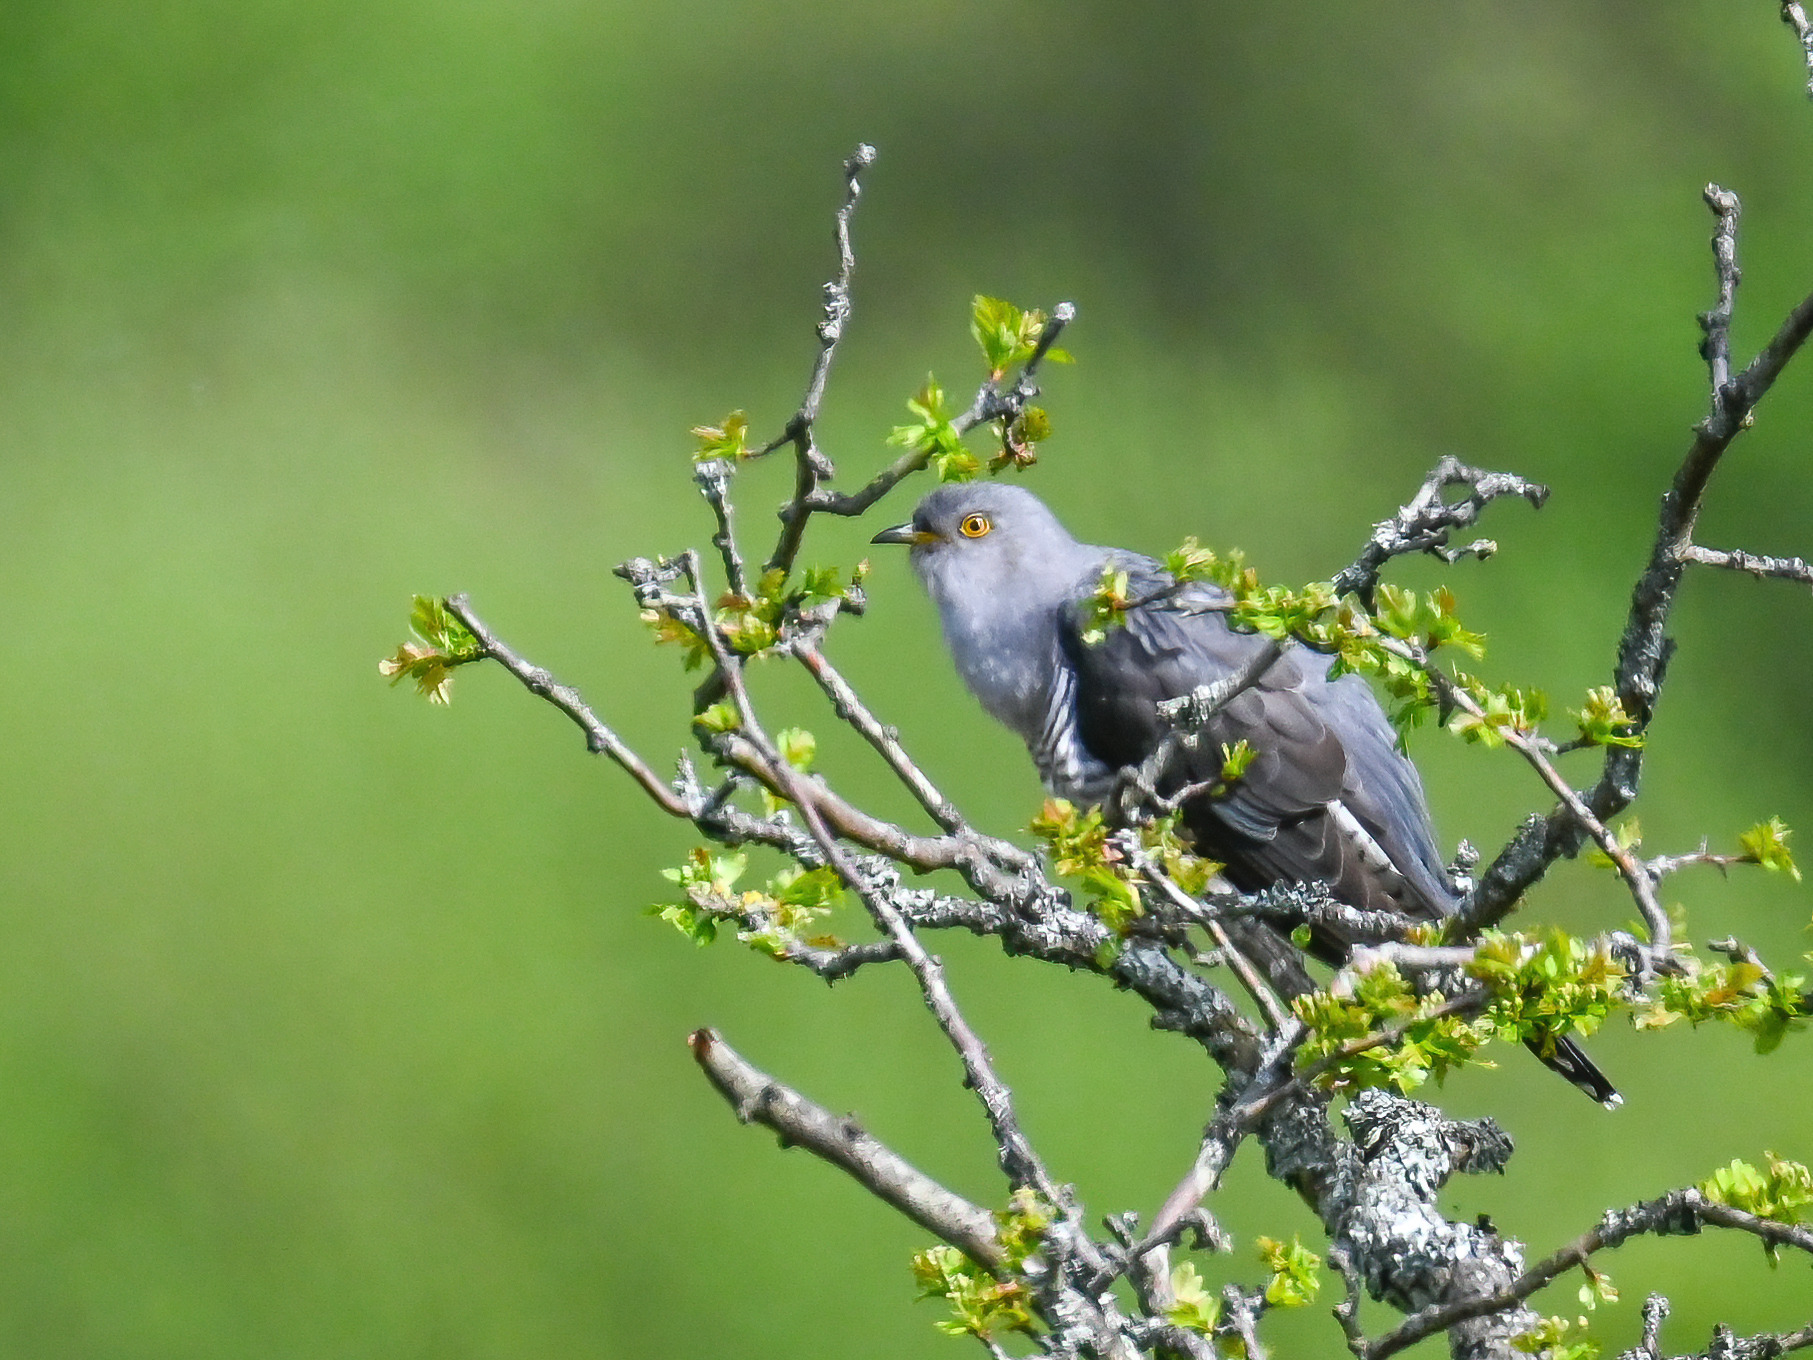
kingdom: Animalia
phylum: Chordata
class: Aves
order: Cuculiformes
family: Cuculidae
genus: Cuculus
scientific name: Cuculus canorus
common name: Common cuckoo
